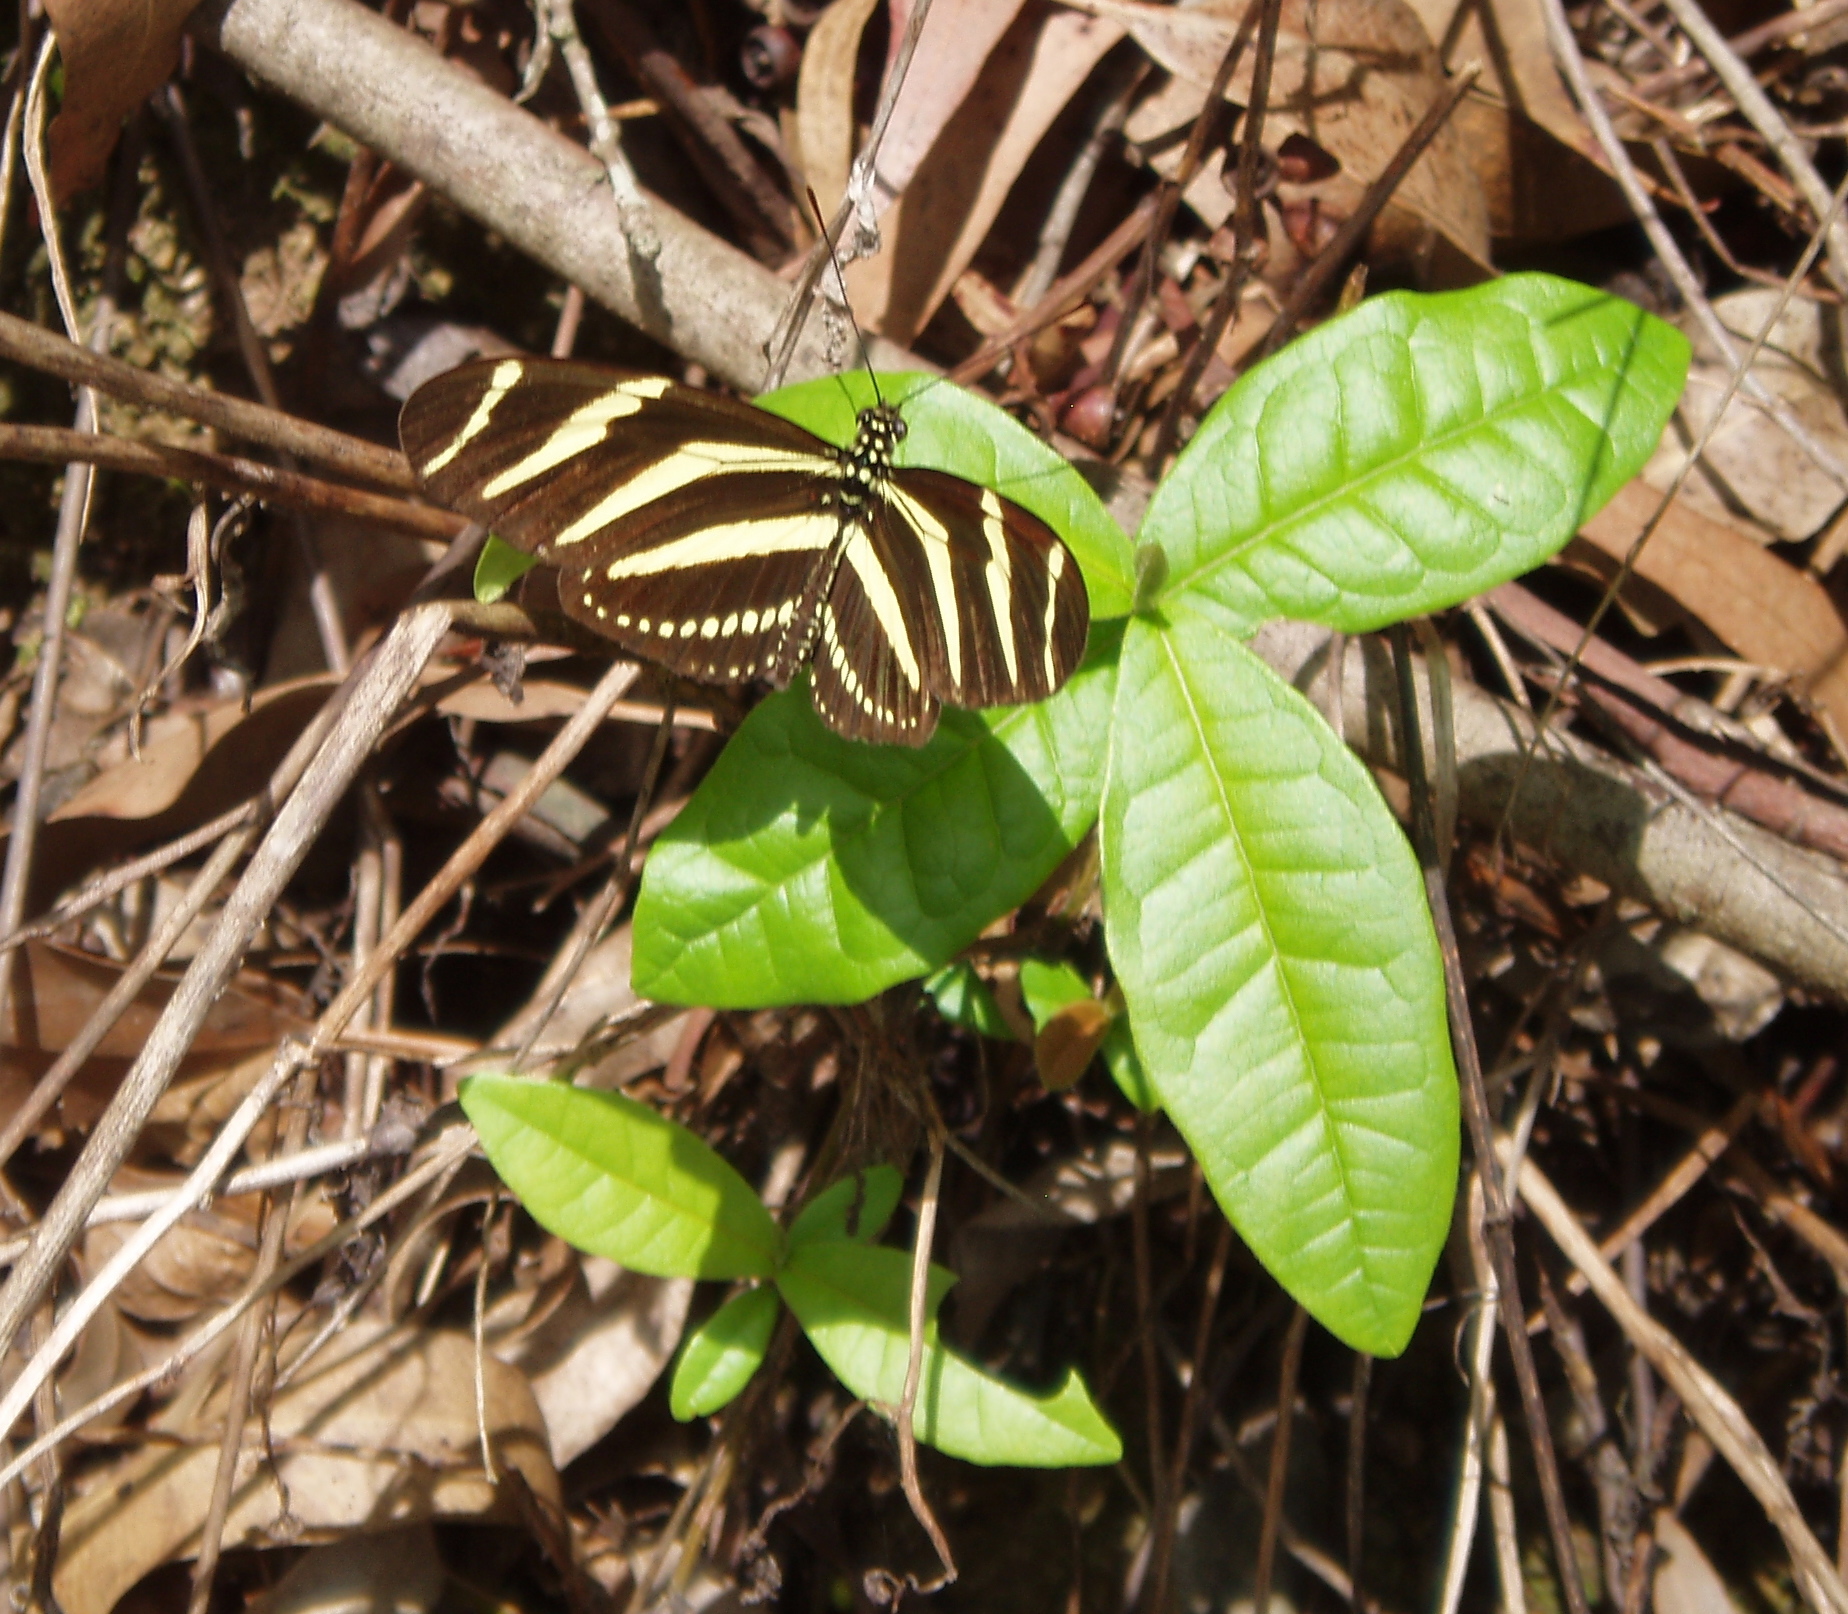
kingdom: Animalia
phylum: Arthropoda
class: Insecta
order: Lepidoptera
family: Nymphalidae
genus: Heliconius
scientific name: Heliconius charithonia
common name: Zebra long wing
